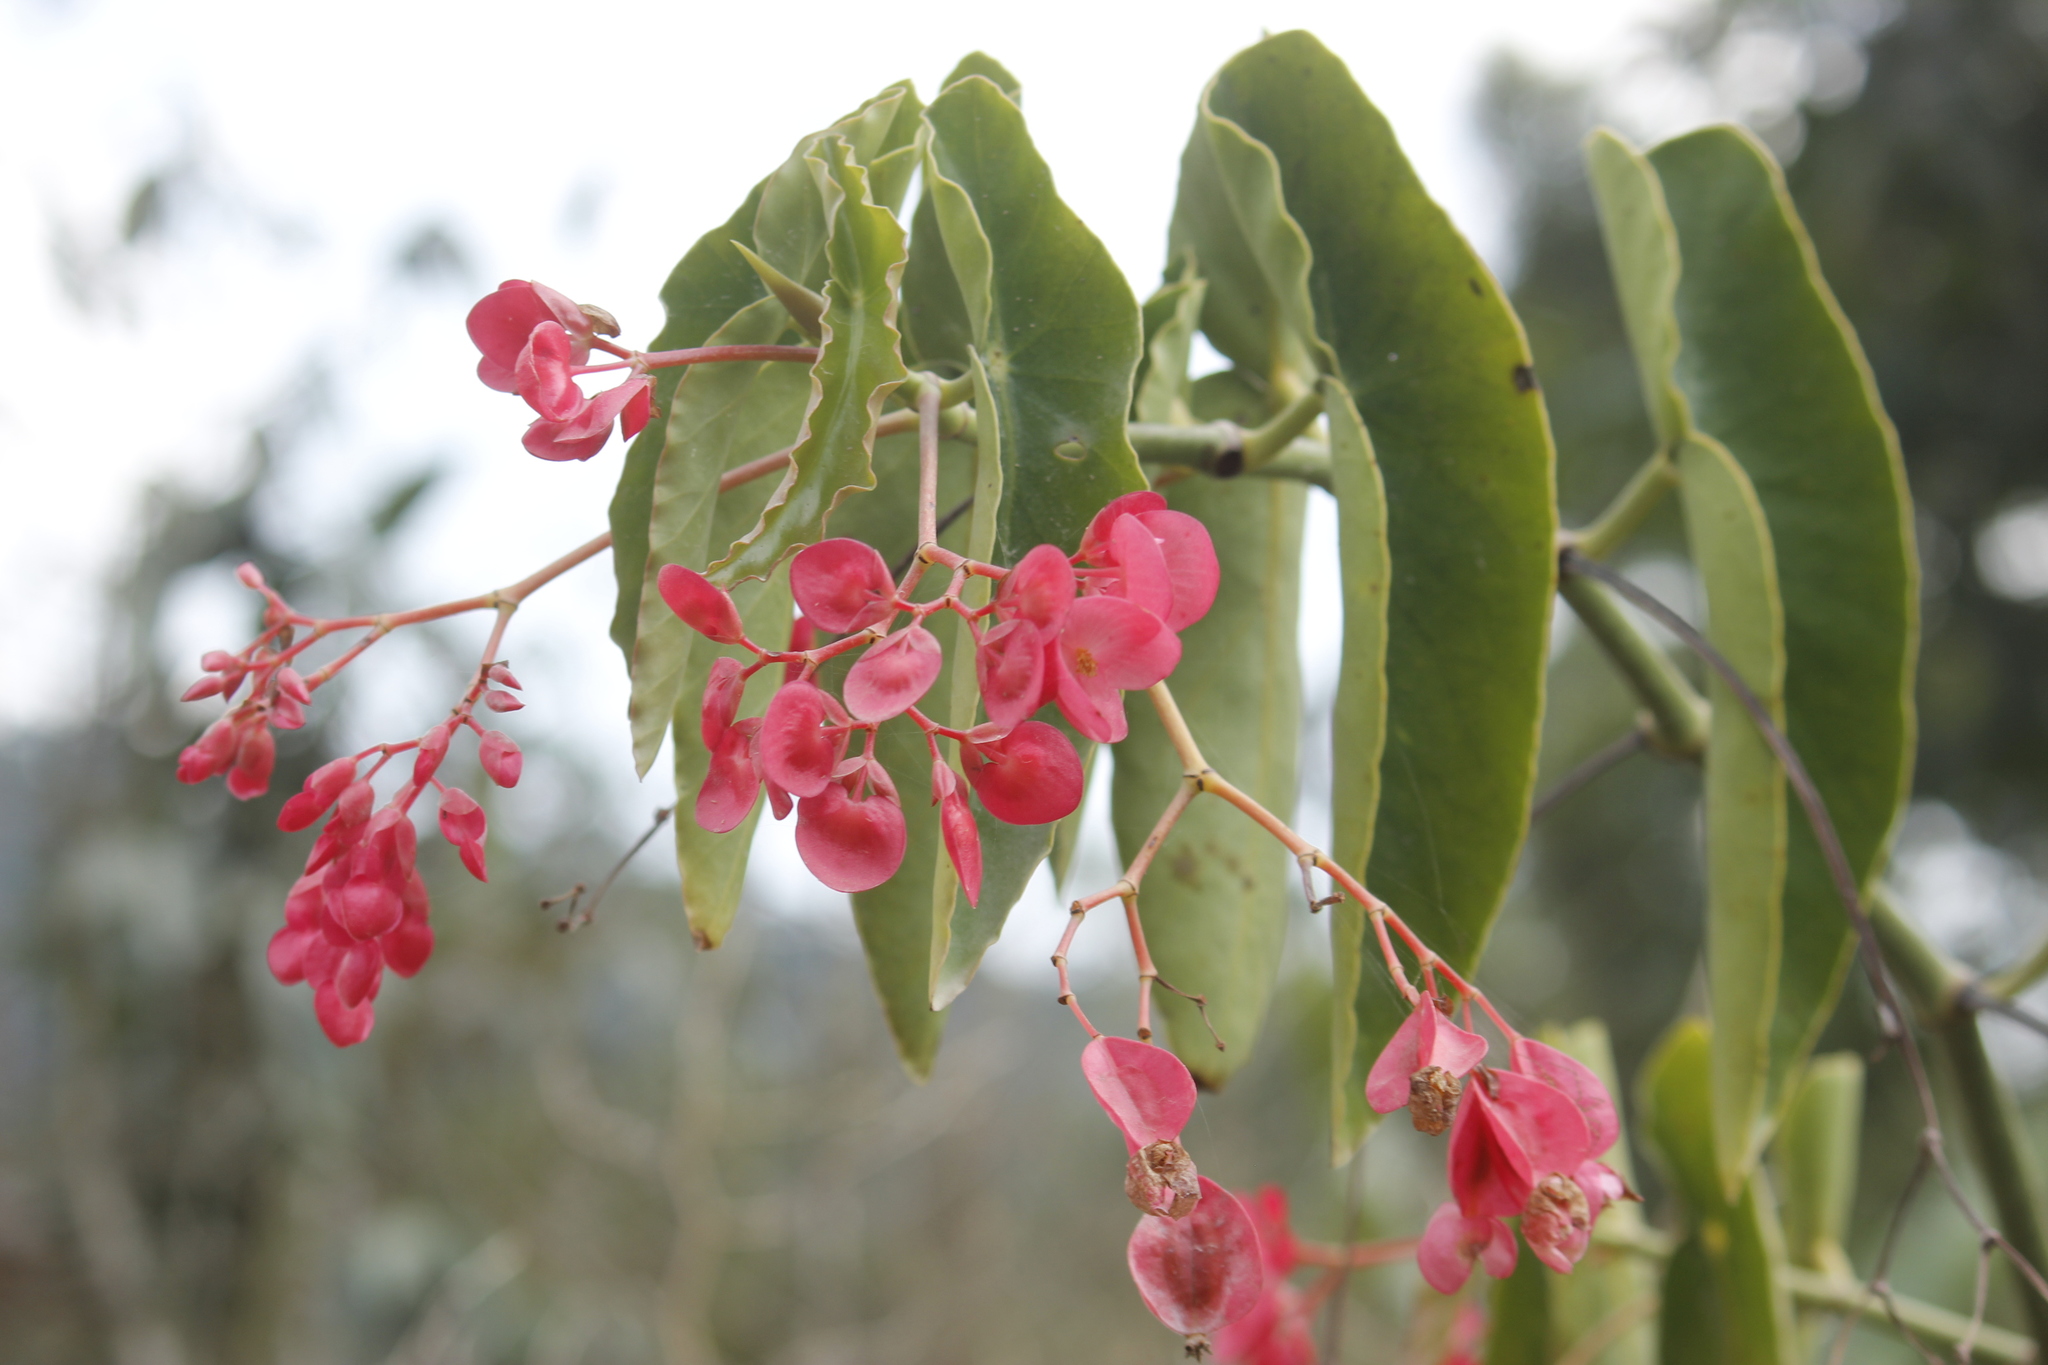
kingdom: Plantae
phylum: Tracheophyta
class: Magnoliopsida
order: Cucurbitales
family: Begoniaceae
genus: Begonia
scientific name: Begonia maculata
